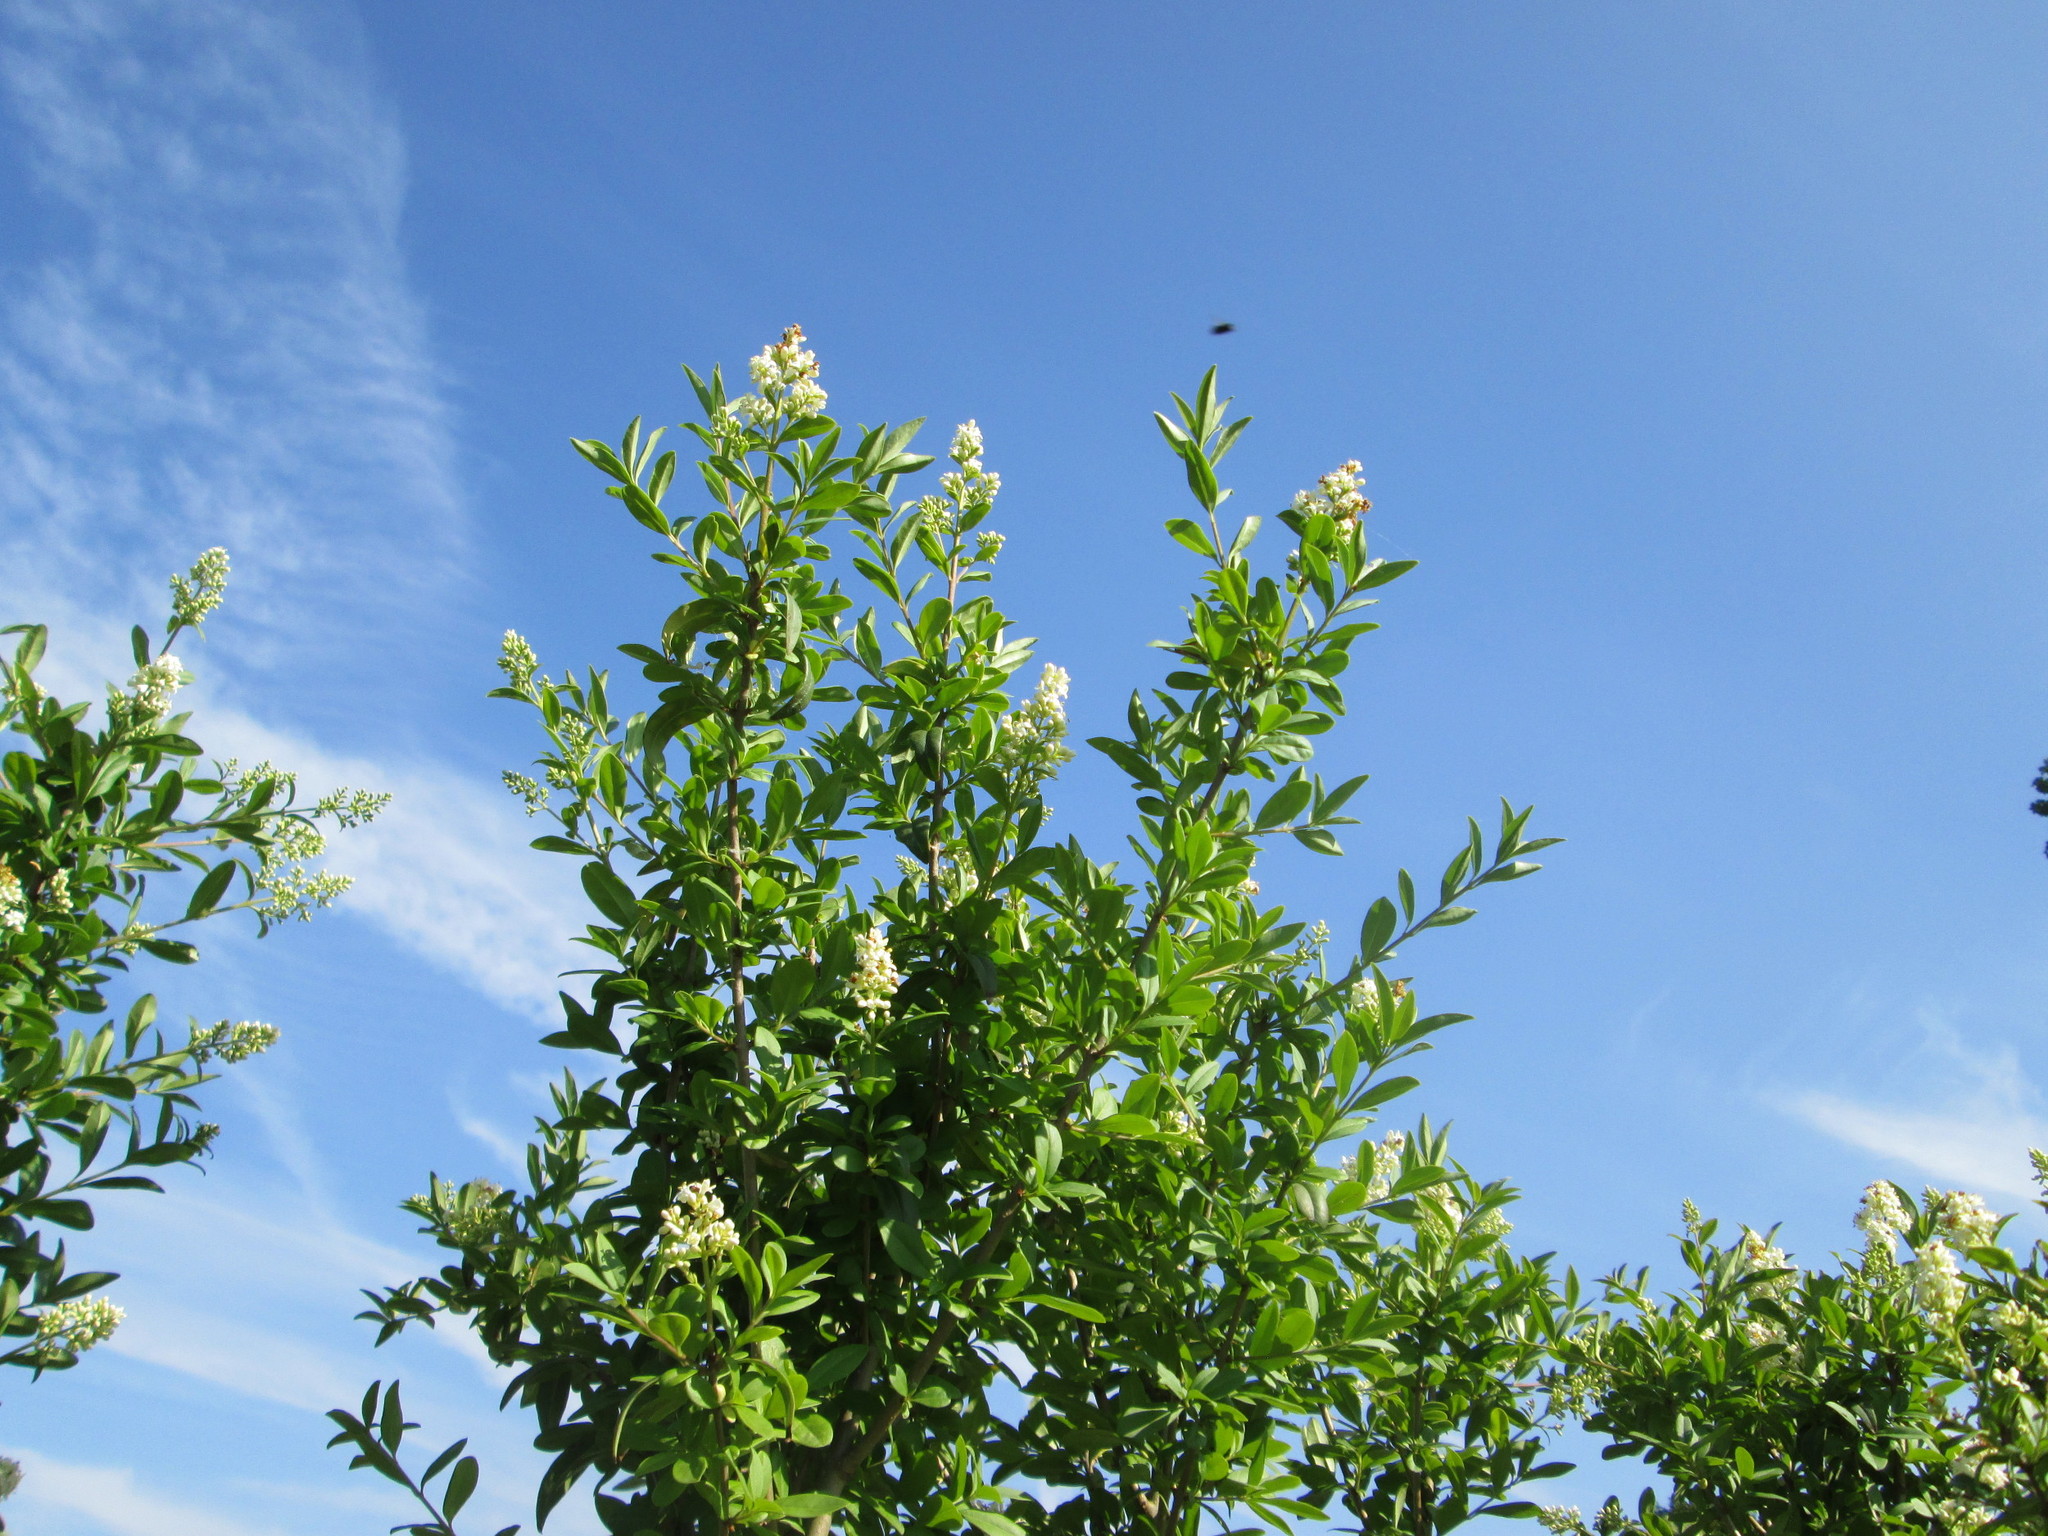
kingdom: Plantae
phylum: Tracheophyta
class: Magnoliopsida
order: Lamiales
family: Oleaceae
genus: Ligustrum
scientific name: Ligustrum vulgare
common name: Wild privet
